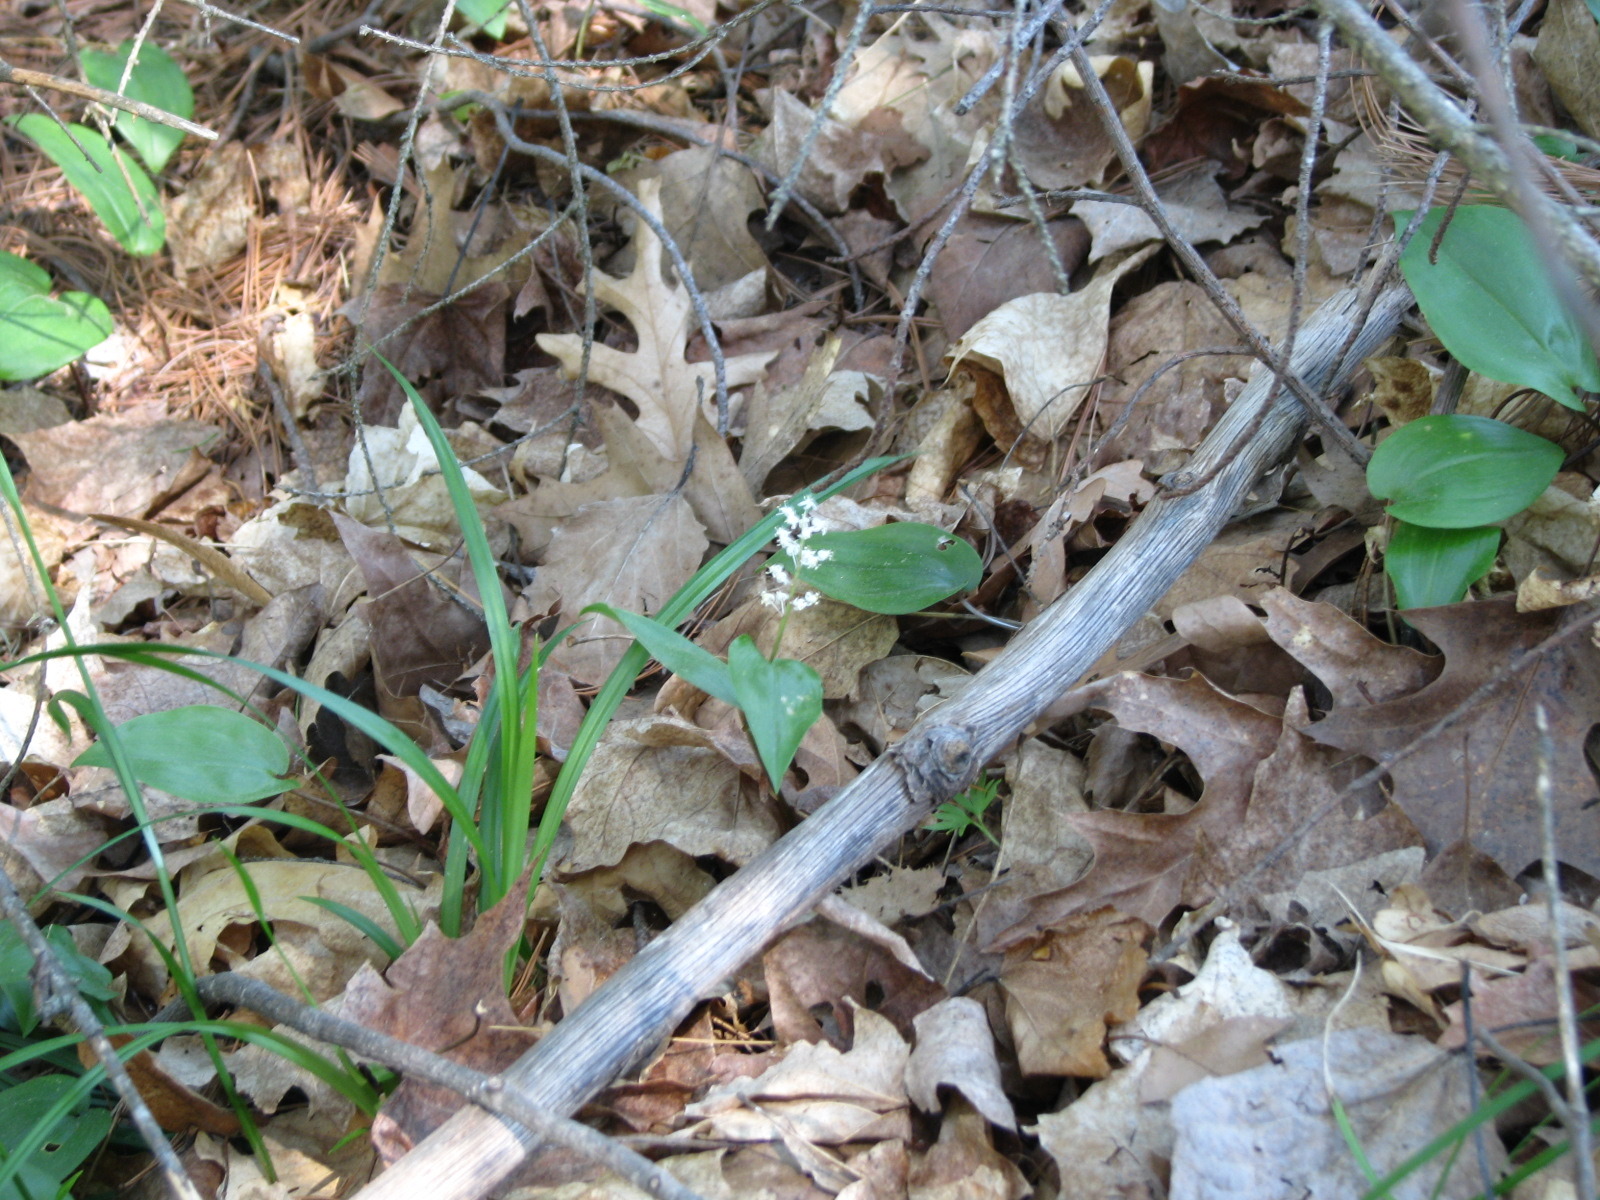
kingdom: Plantae
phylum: Tracheophyta
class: Liliopsida
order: Asparagales
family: Asparagaceae
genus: Maianthemum
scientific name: Maianthemum canadense
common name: False lily-of-the-valley
